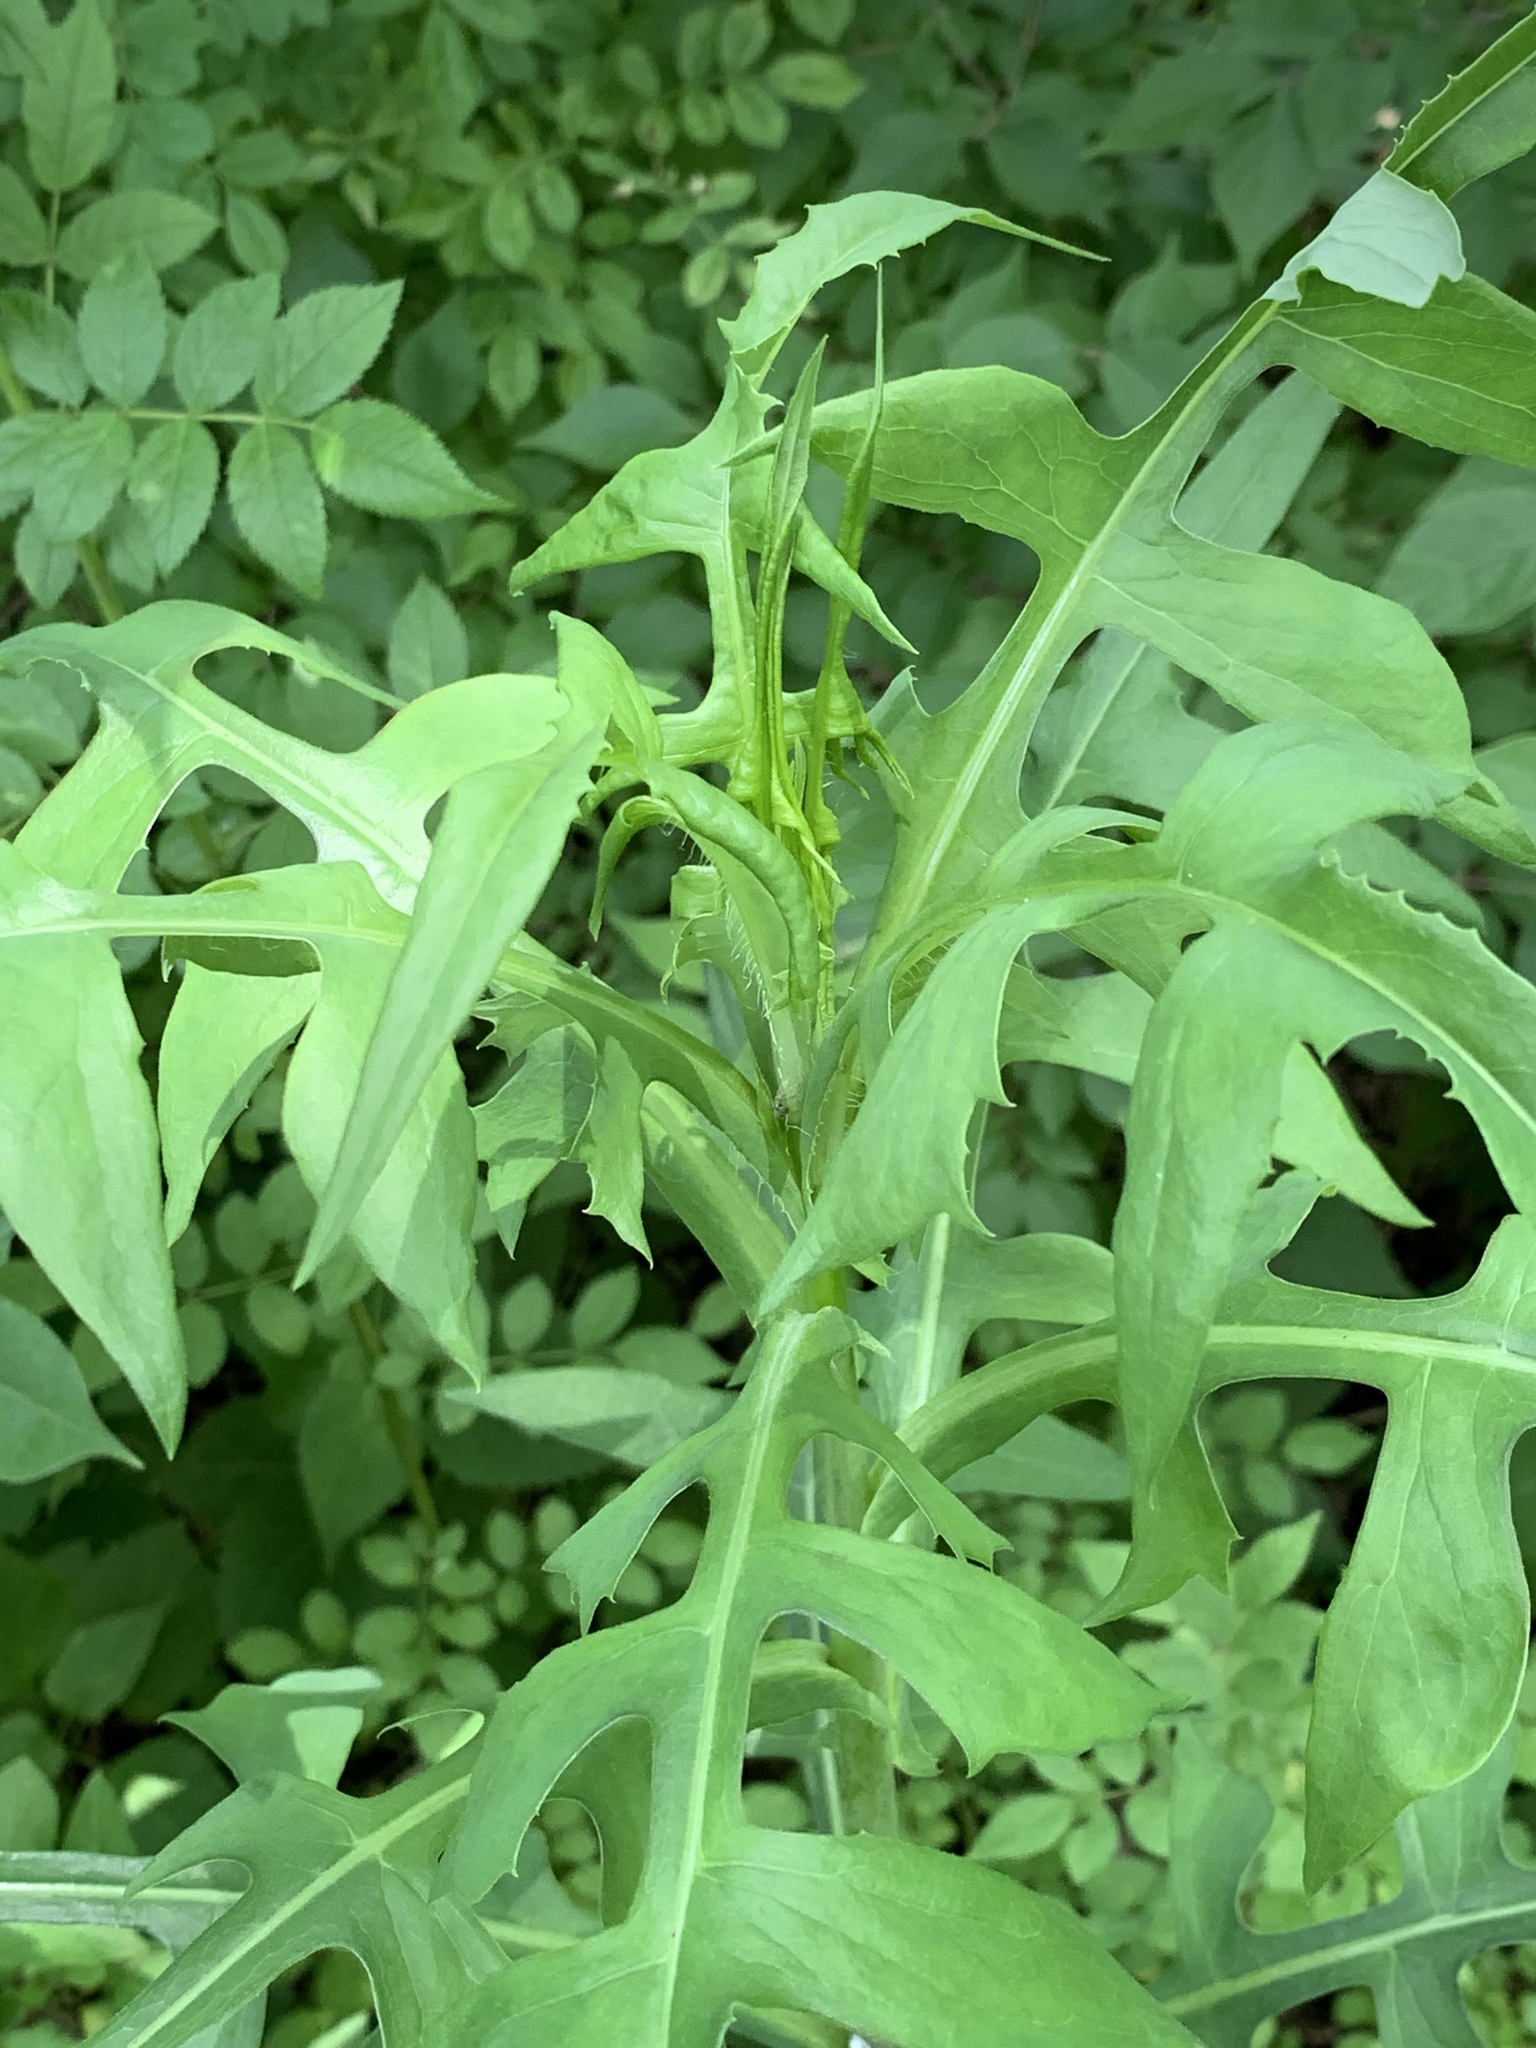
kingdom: Plantae
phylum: Tracheophyta
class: Magnoliopsida
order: Asterales
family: Asteraceae
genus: Lactuca
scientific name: Lactuca canadensis
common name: Canada lettuce
